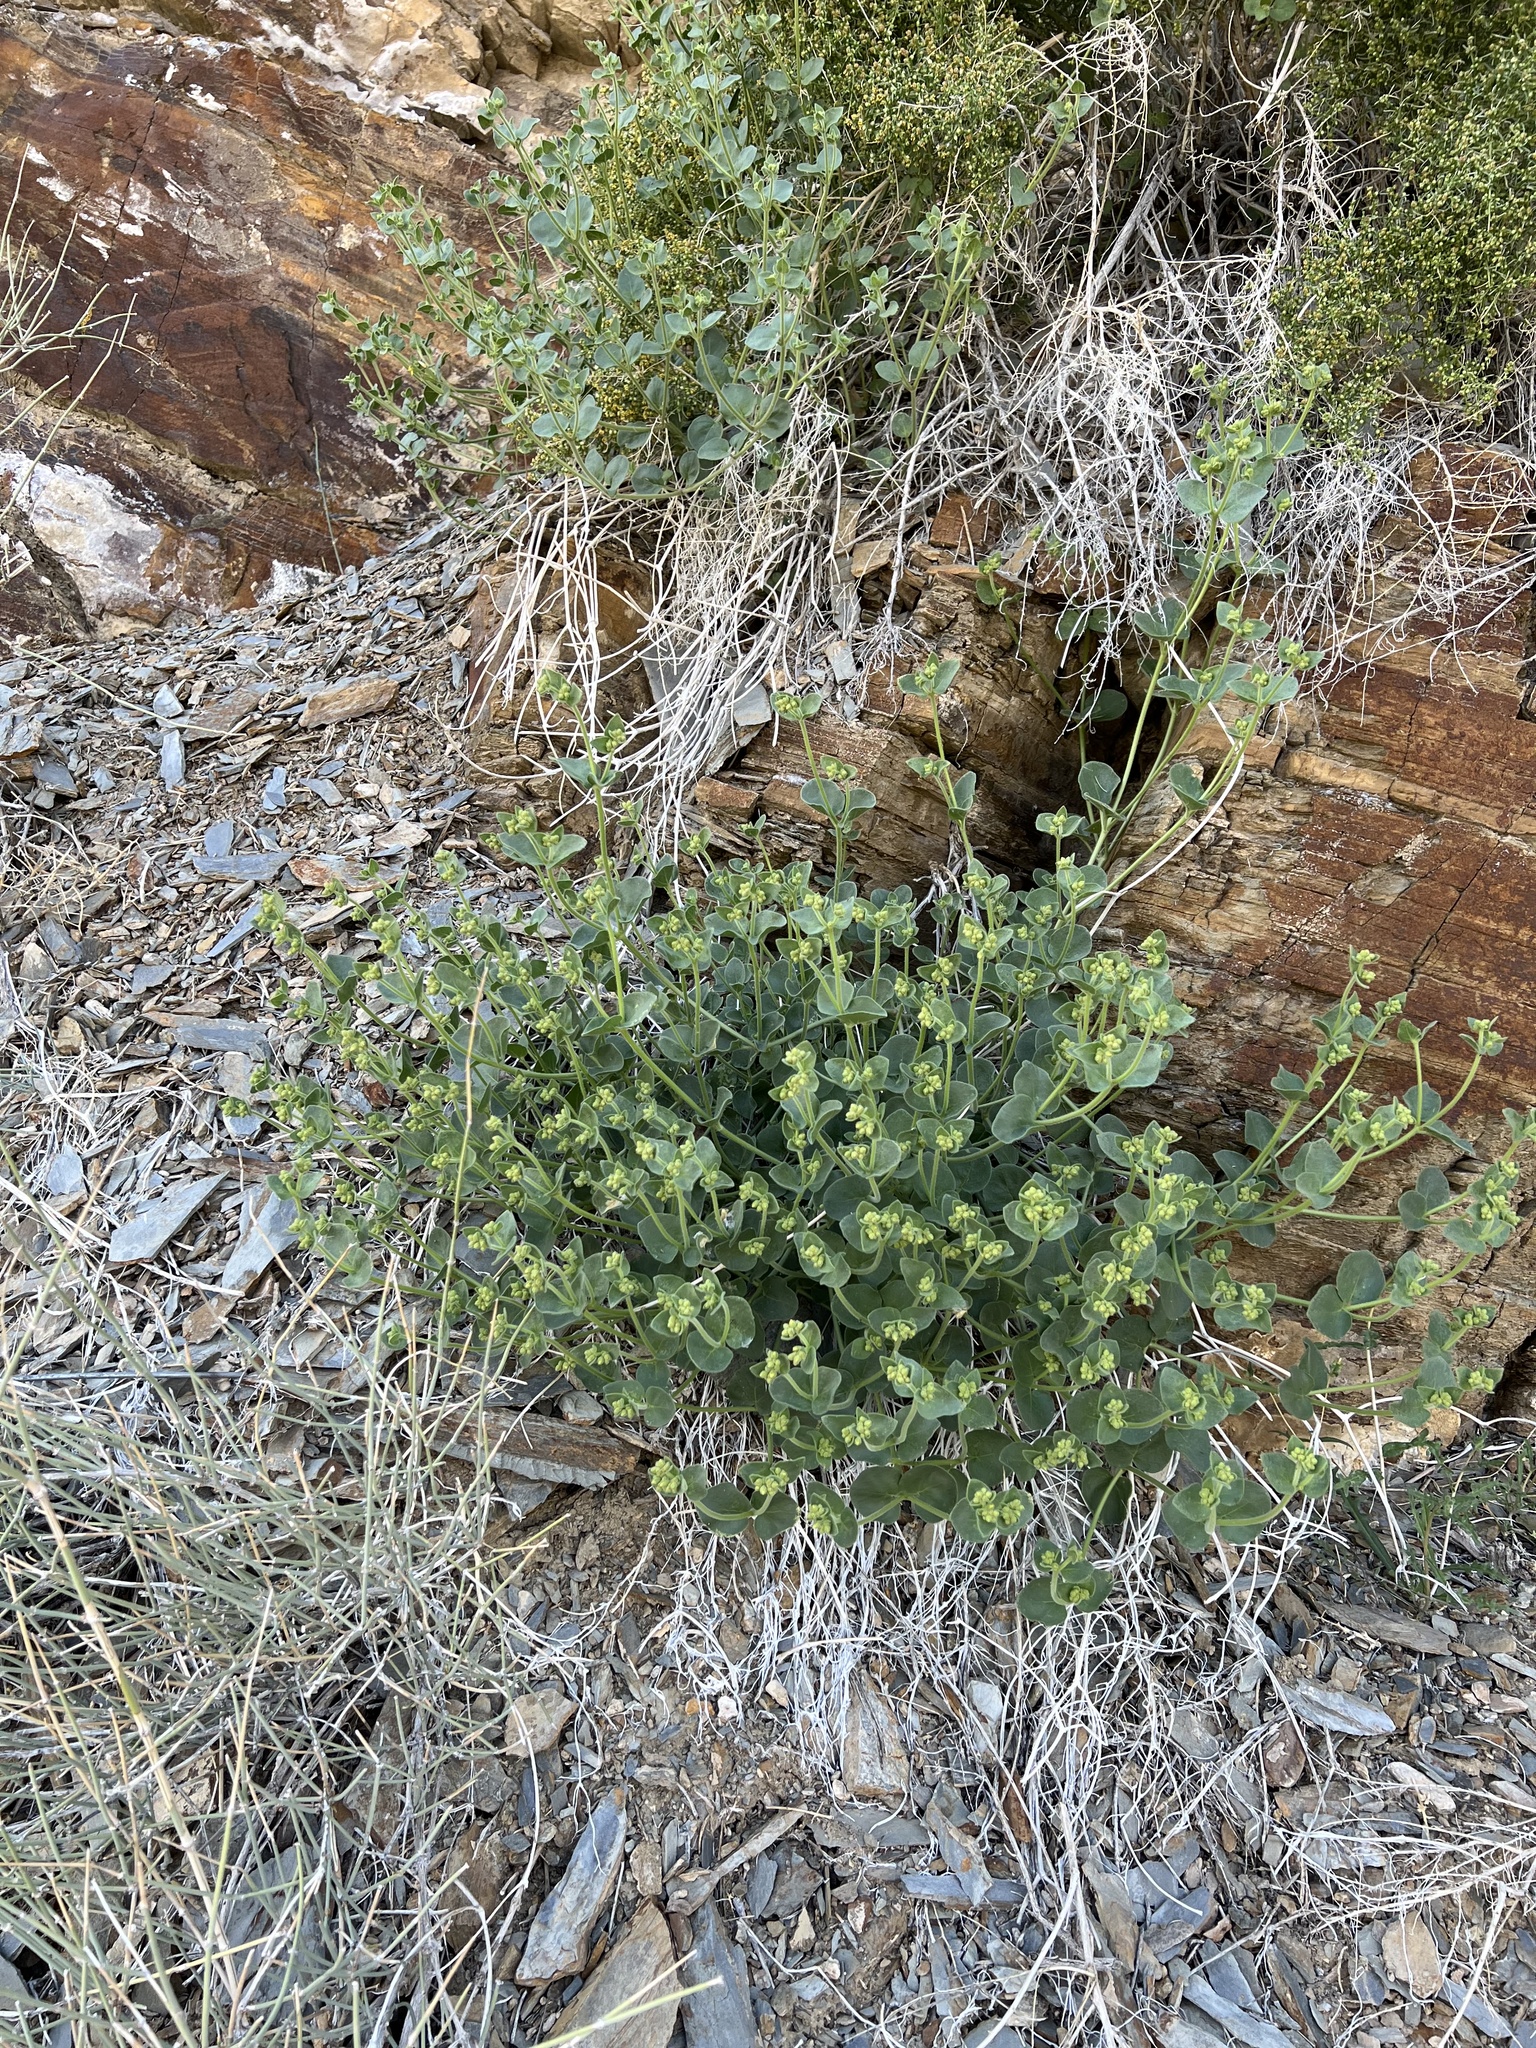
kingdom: Plantae
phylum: Tracheophyta
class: Magnoliopsida
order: Caryophyllales
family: Nyctaginaceae
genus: Mirabilis
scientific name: Mirabilis laevis
